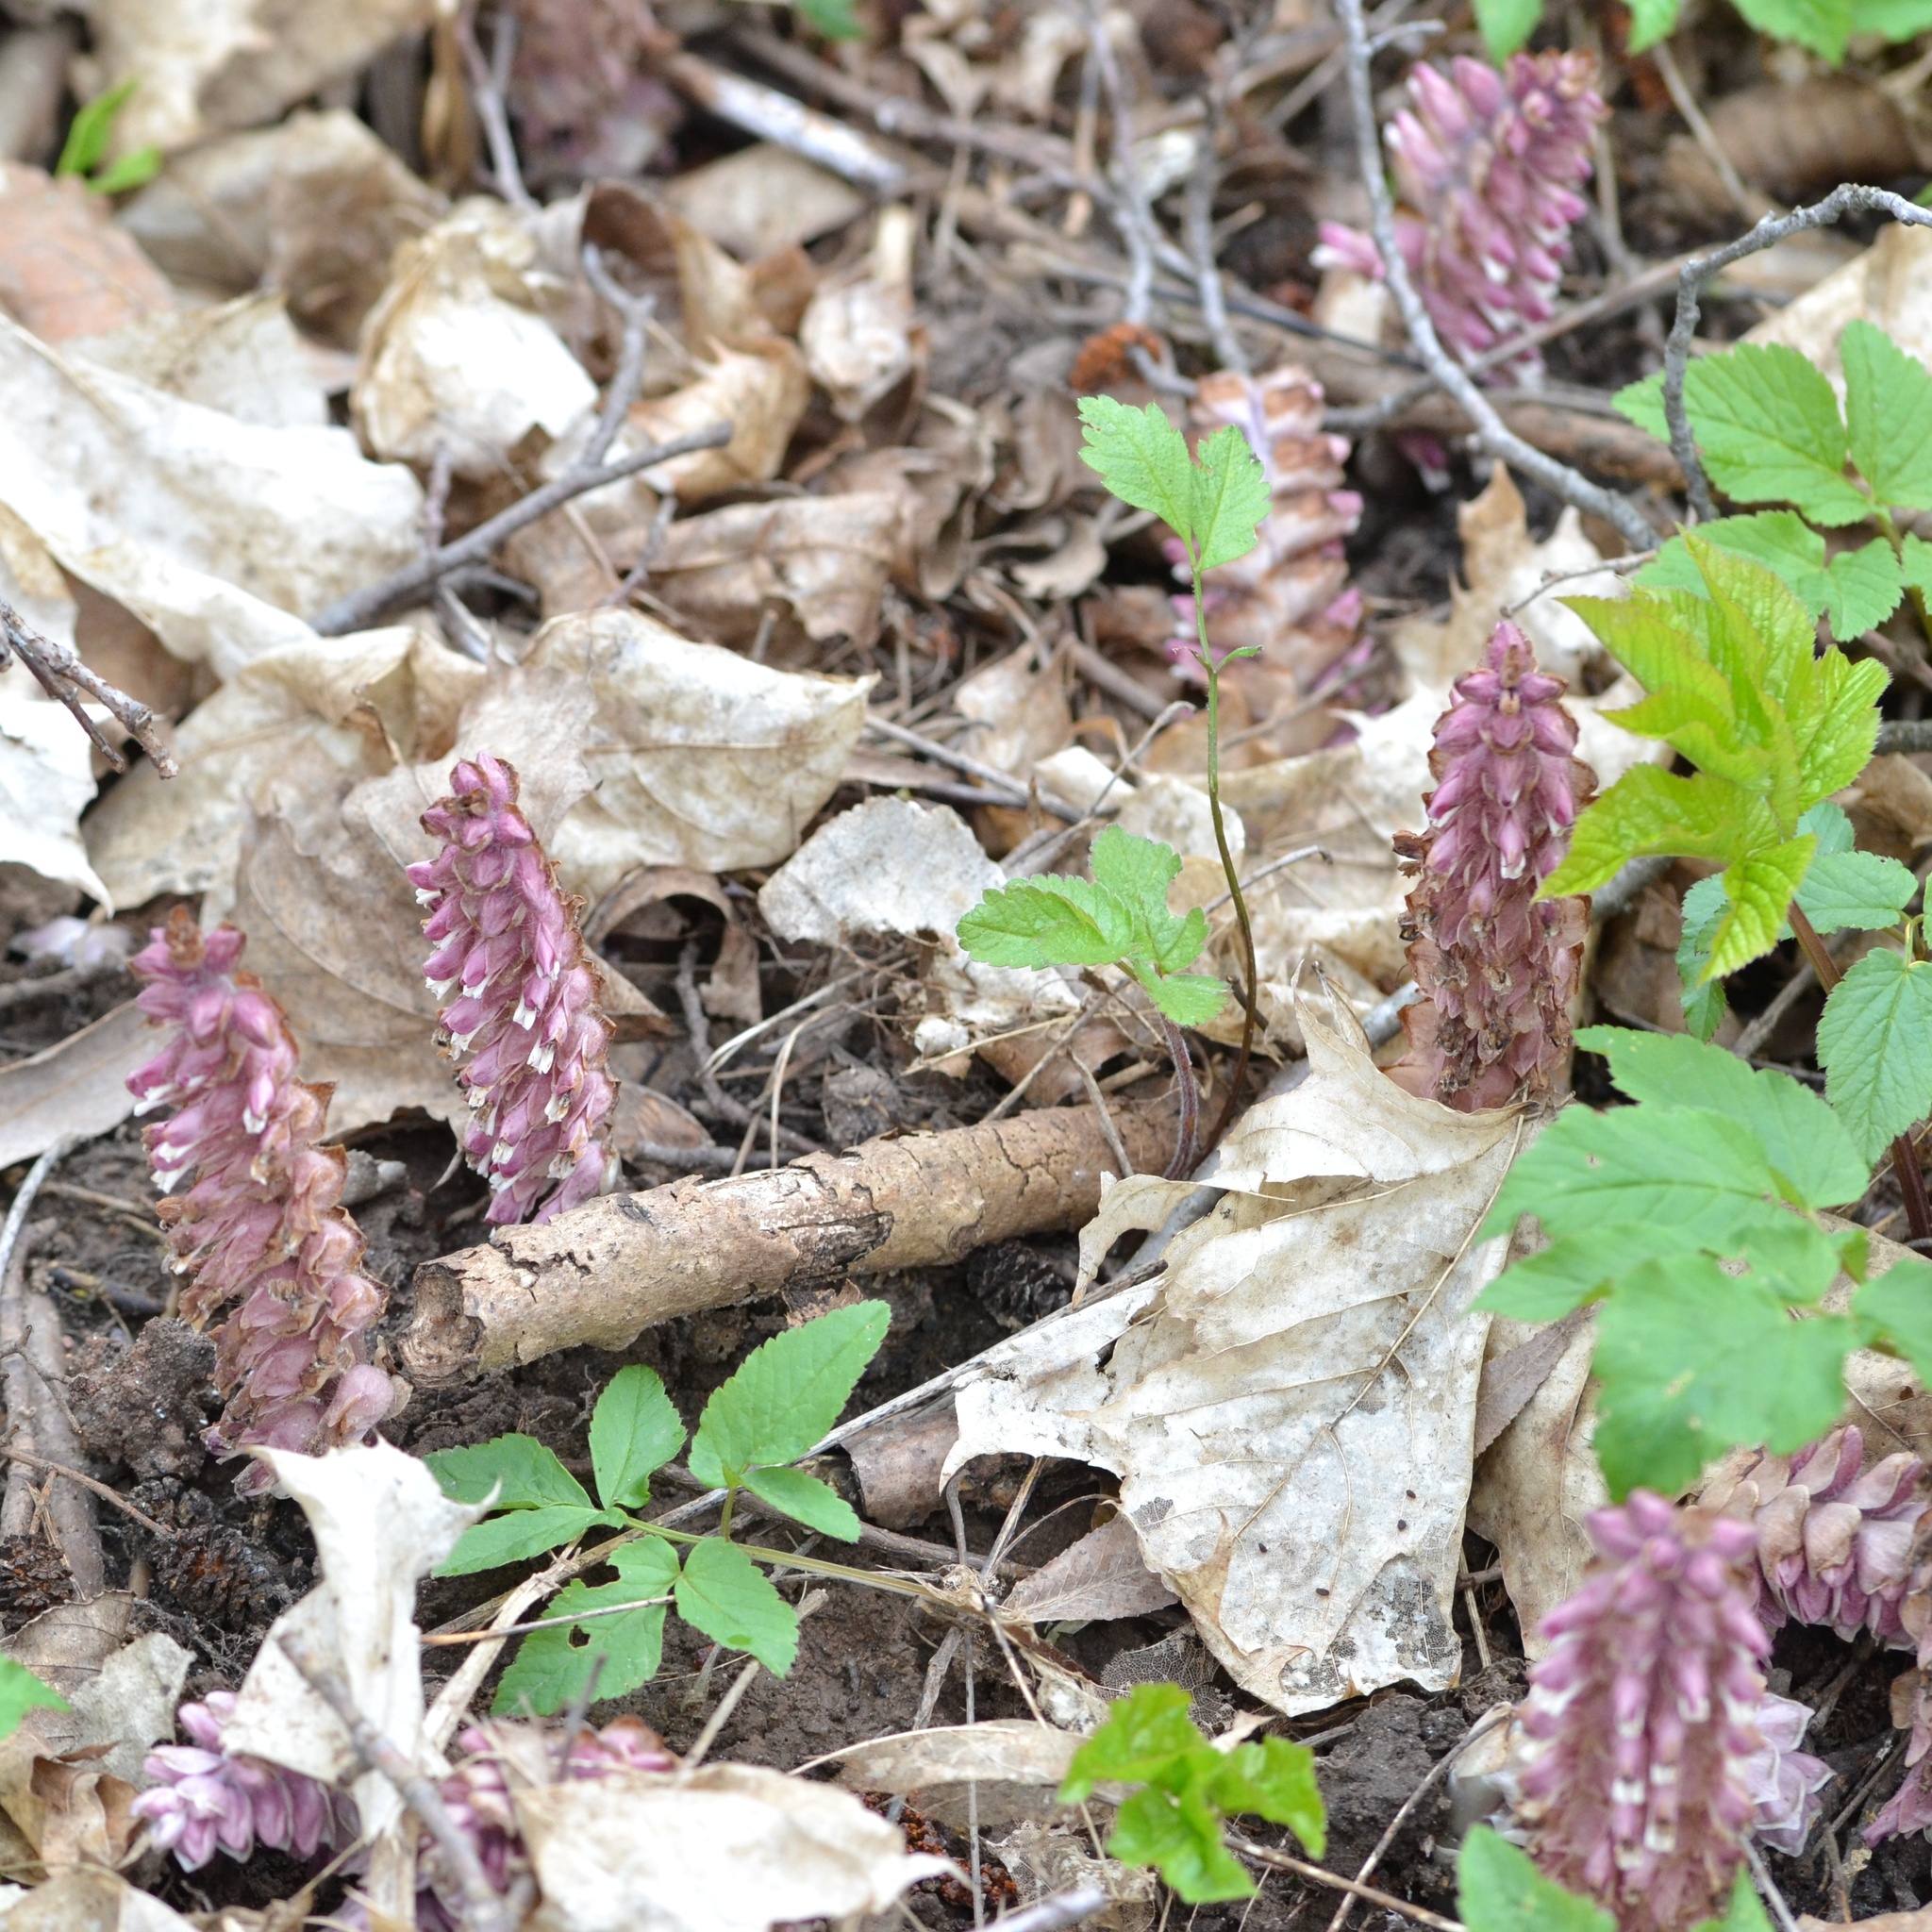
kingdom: Plantae
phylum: Tracheophyta
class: Magnoliopsida
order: Lamiales
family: Orobanchaceae
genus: Lathraea
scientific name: Lathraea squamaria
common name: Toothwort
